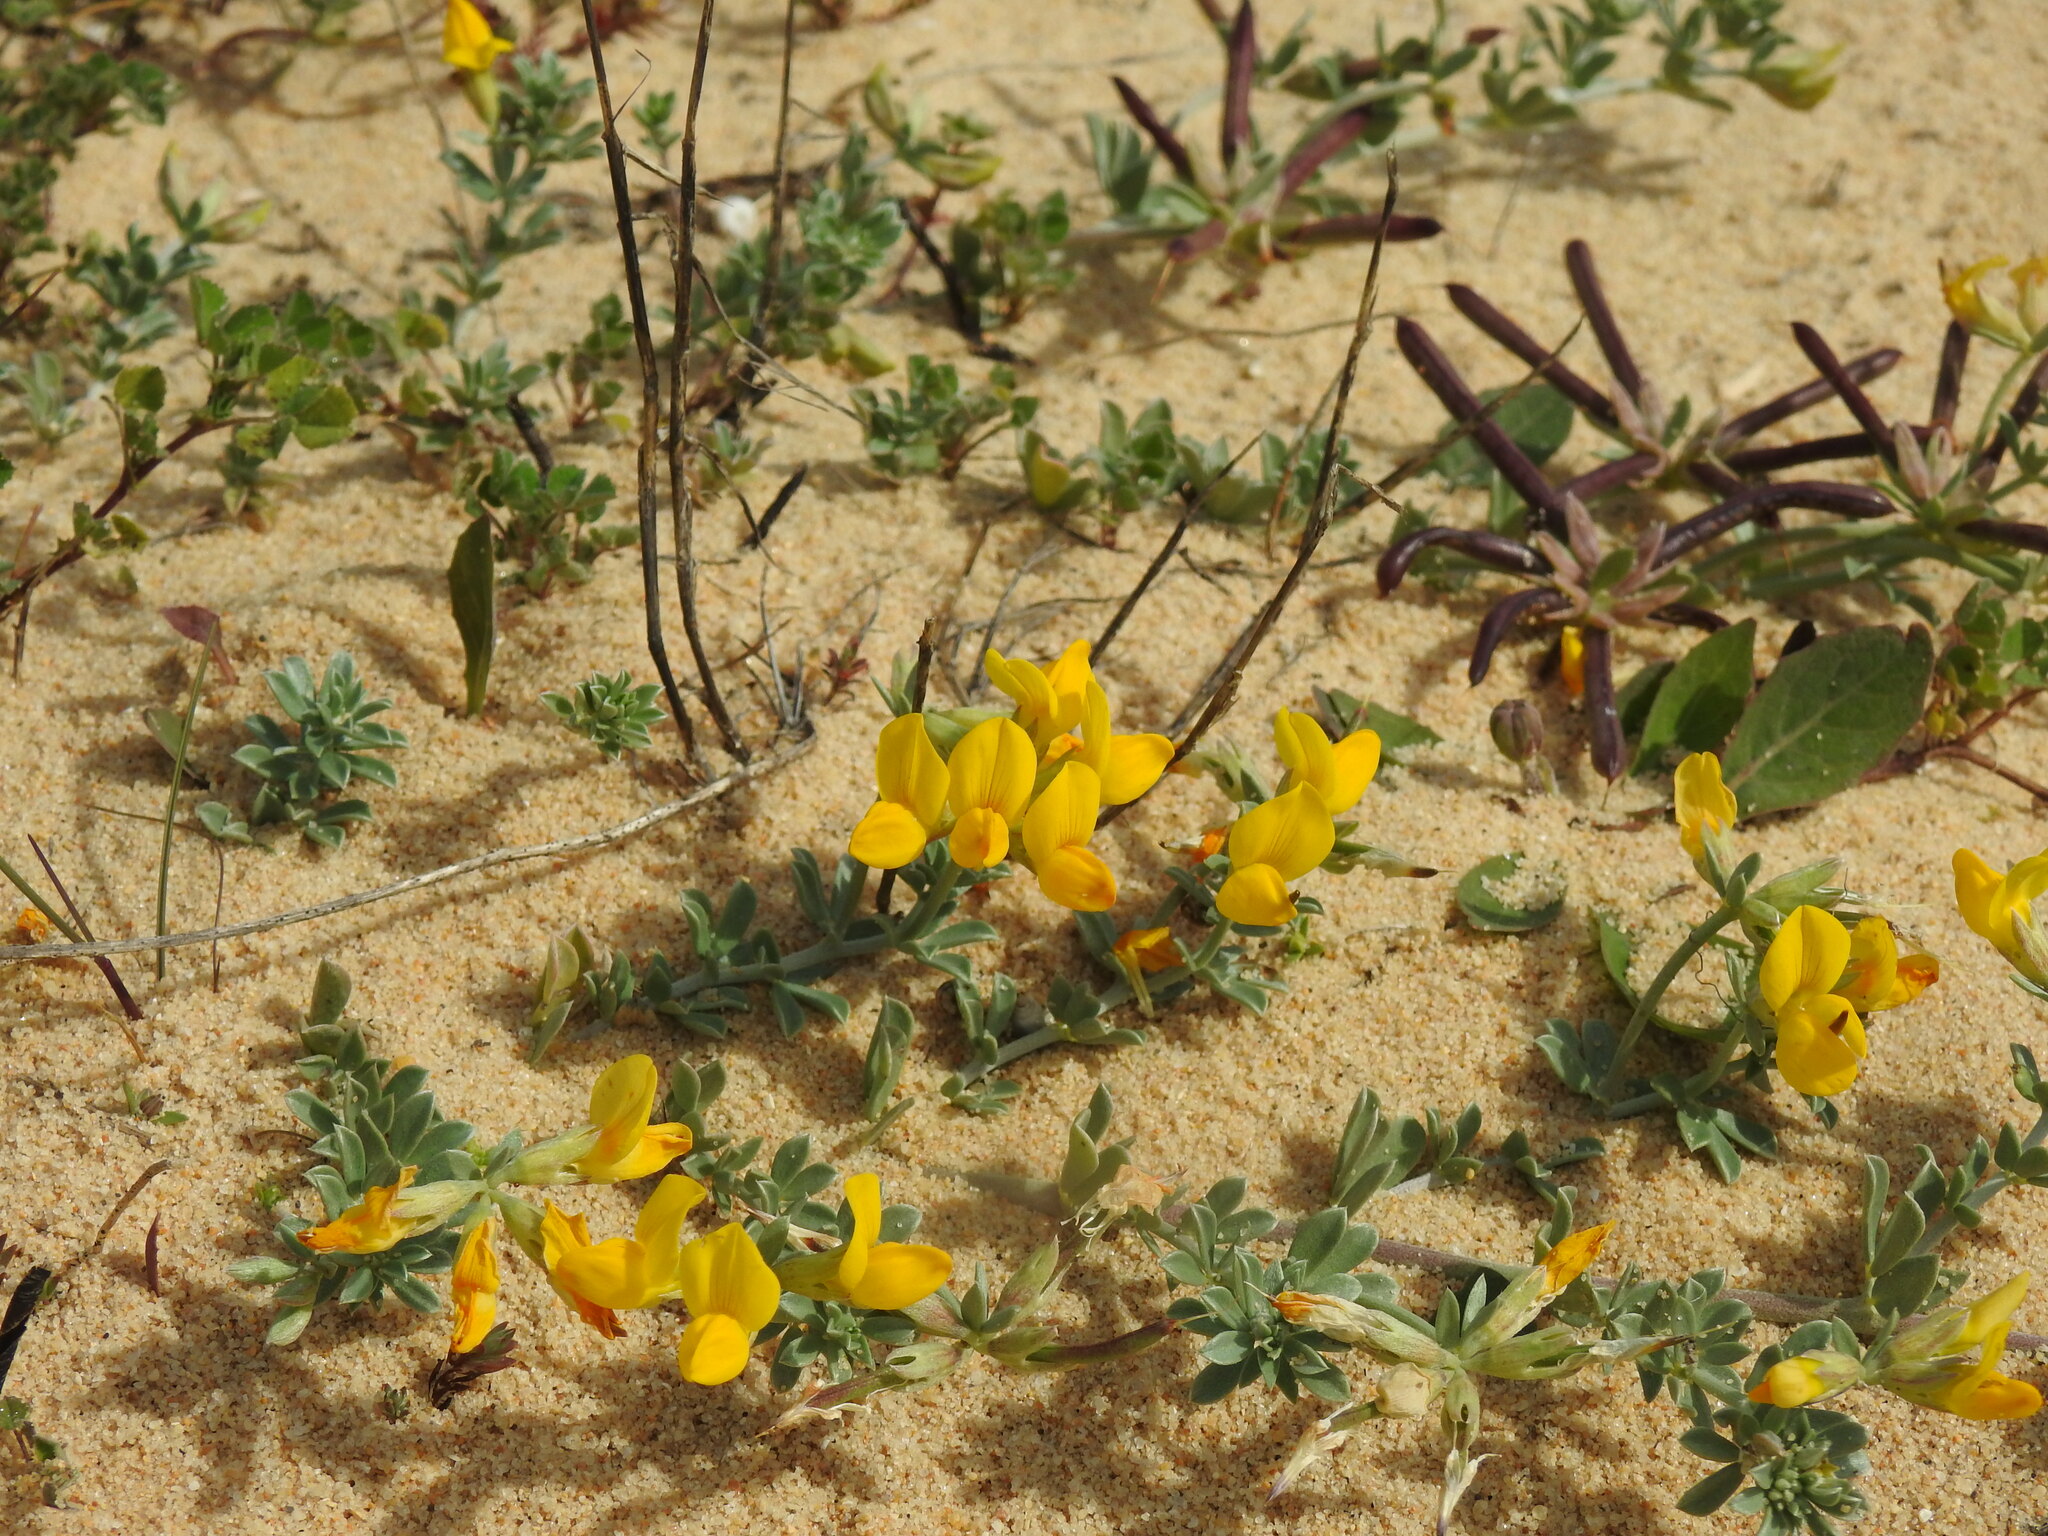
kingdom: Plantae
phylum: Tracheophyta
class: Magnoliopsida
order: Fabales
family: Fabaceae
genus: Lotus
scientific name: Lotus creticus
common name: Cretan bird's-foot trefoil
